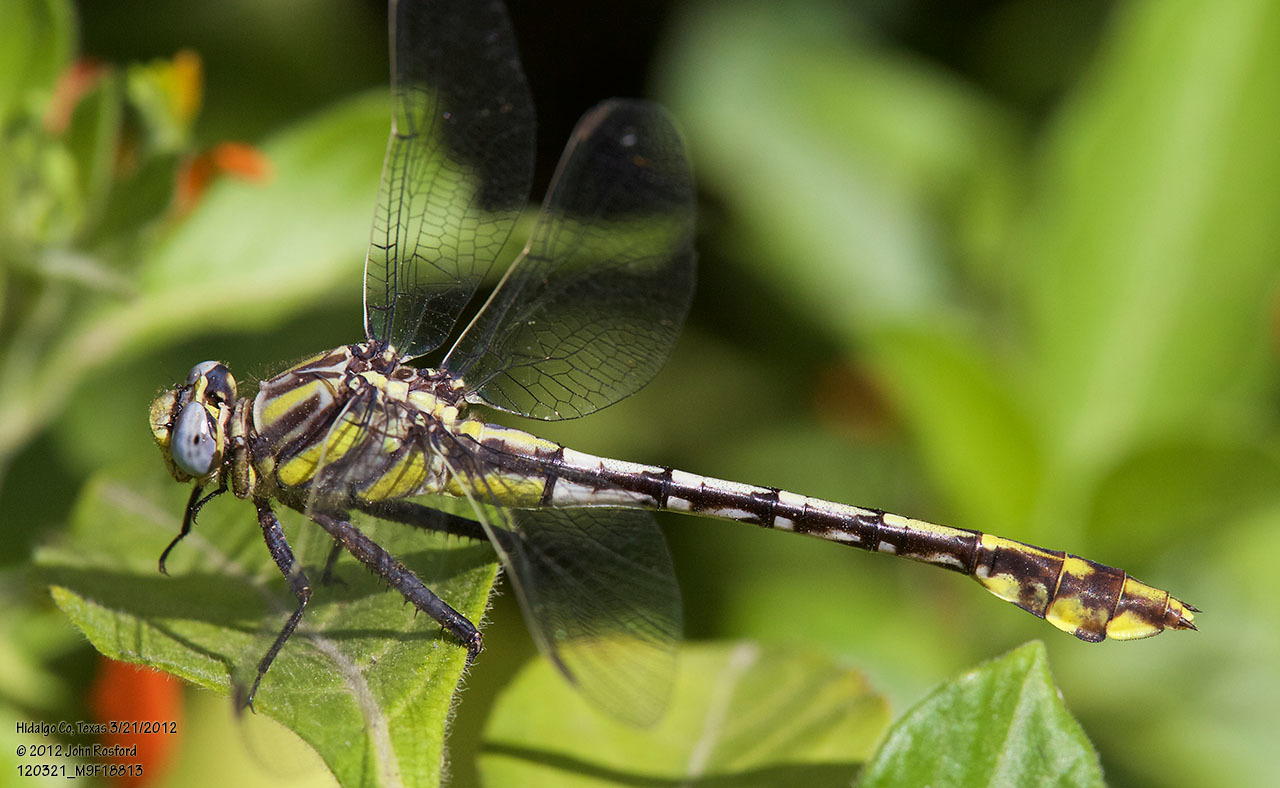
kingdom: Animalia
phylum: Arthropoda
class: Insecta
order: Odonata
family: Gomphidae
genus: Gomphurus
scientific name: Gomphurus gonzalezi
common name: Tamaulipan clubtail
